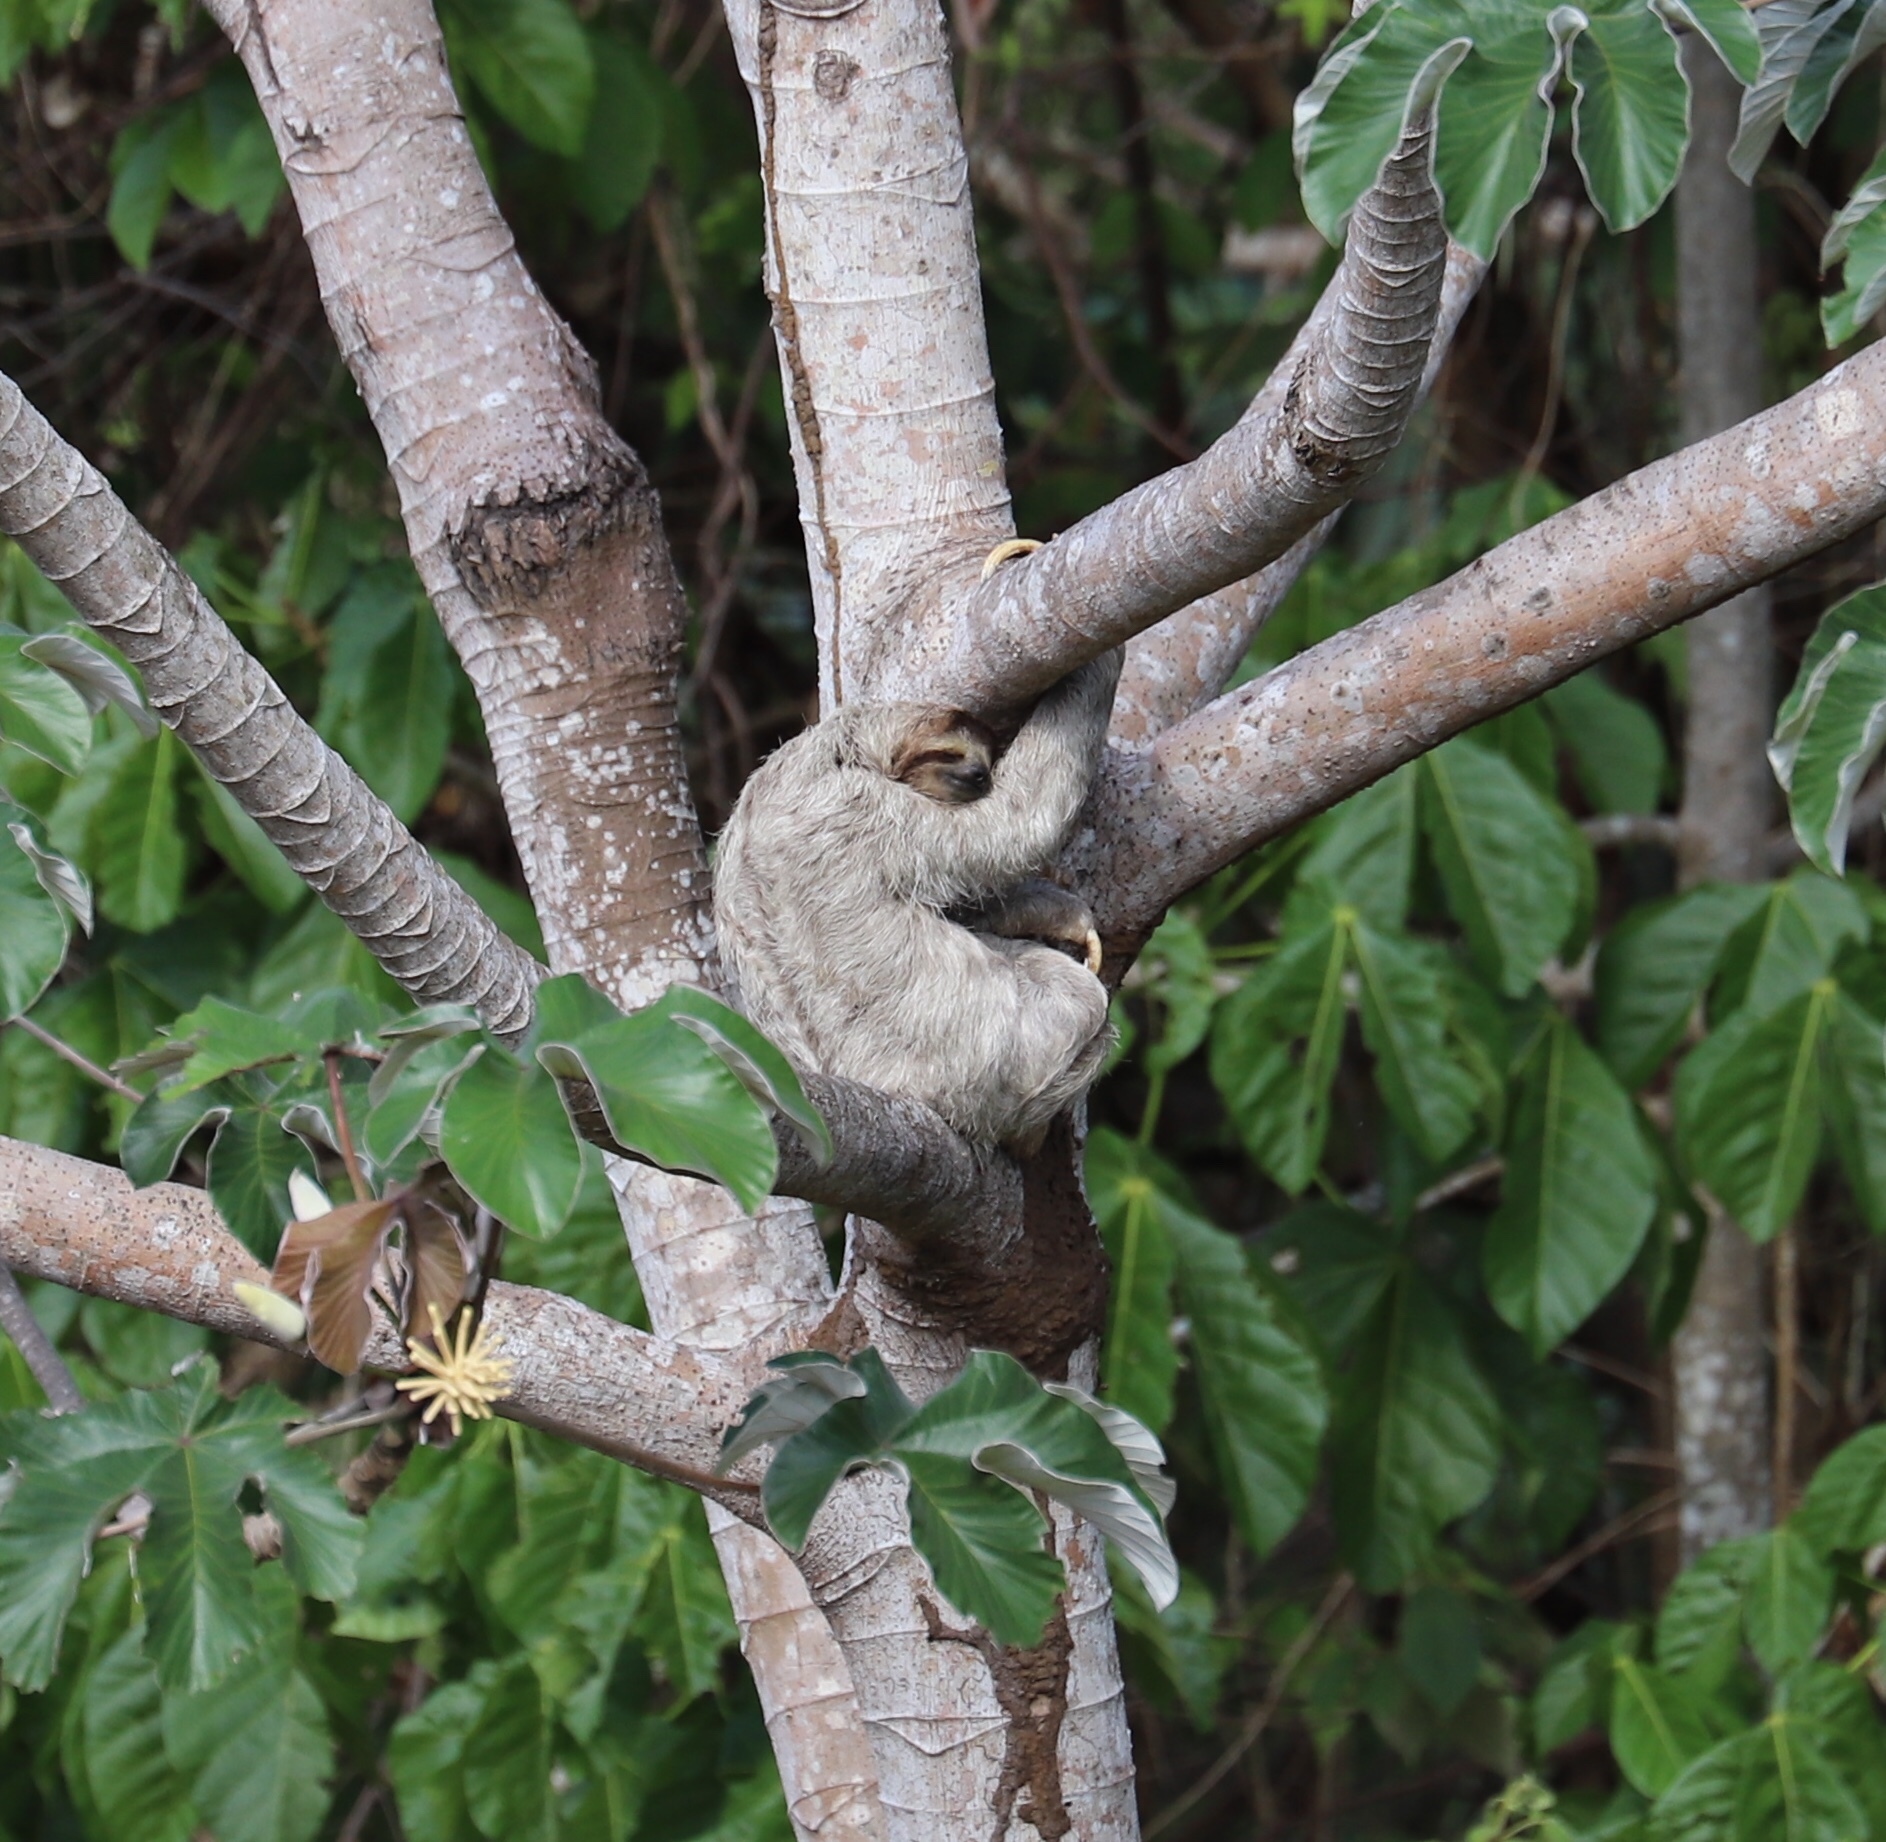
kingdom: Animalia
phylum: Chordata
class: Mammalia
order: Pilosa
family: Bradypodidae
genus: Bradypus
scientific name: Bradypus variegatus
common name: Brown-throated three-toed sloth
